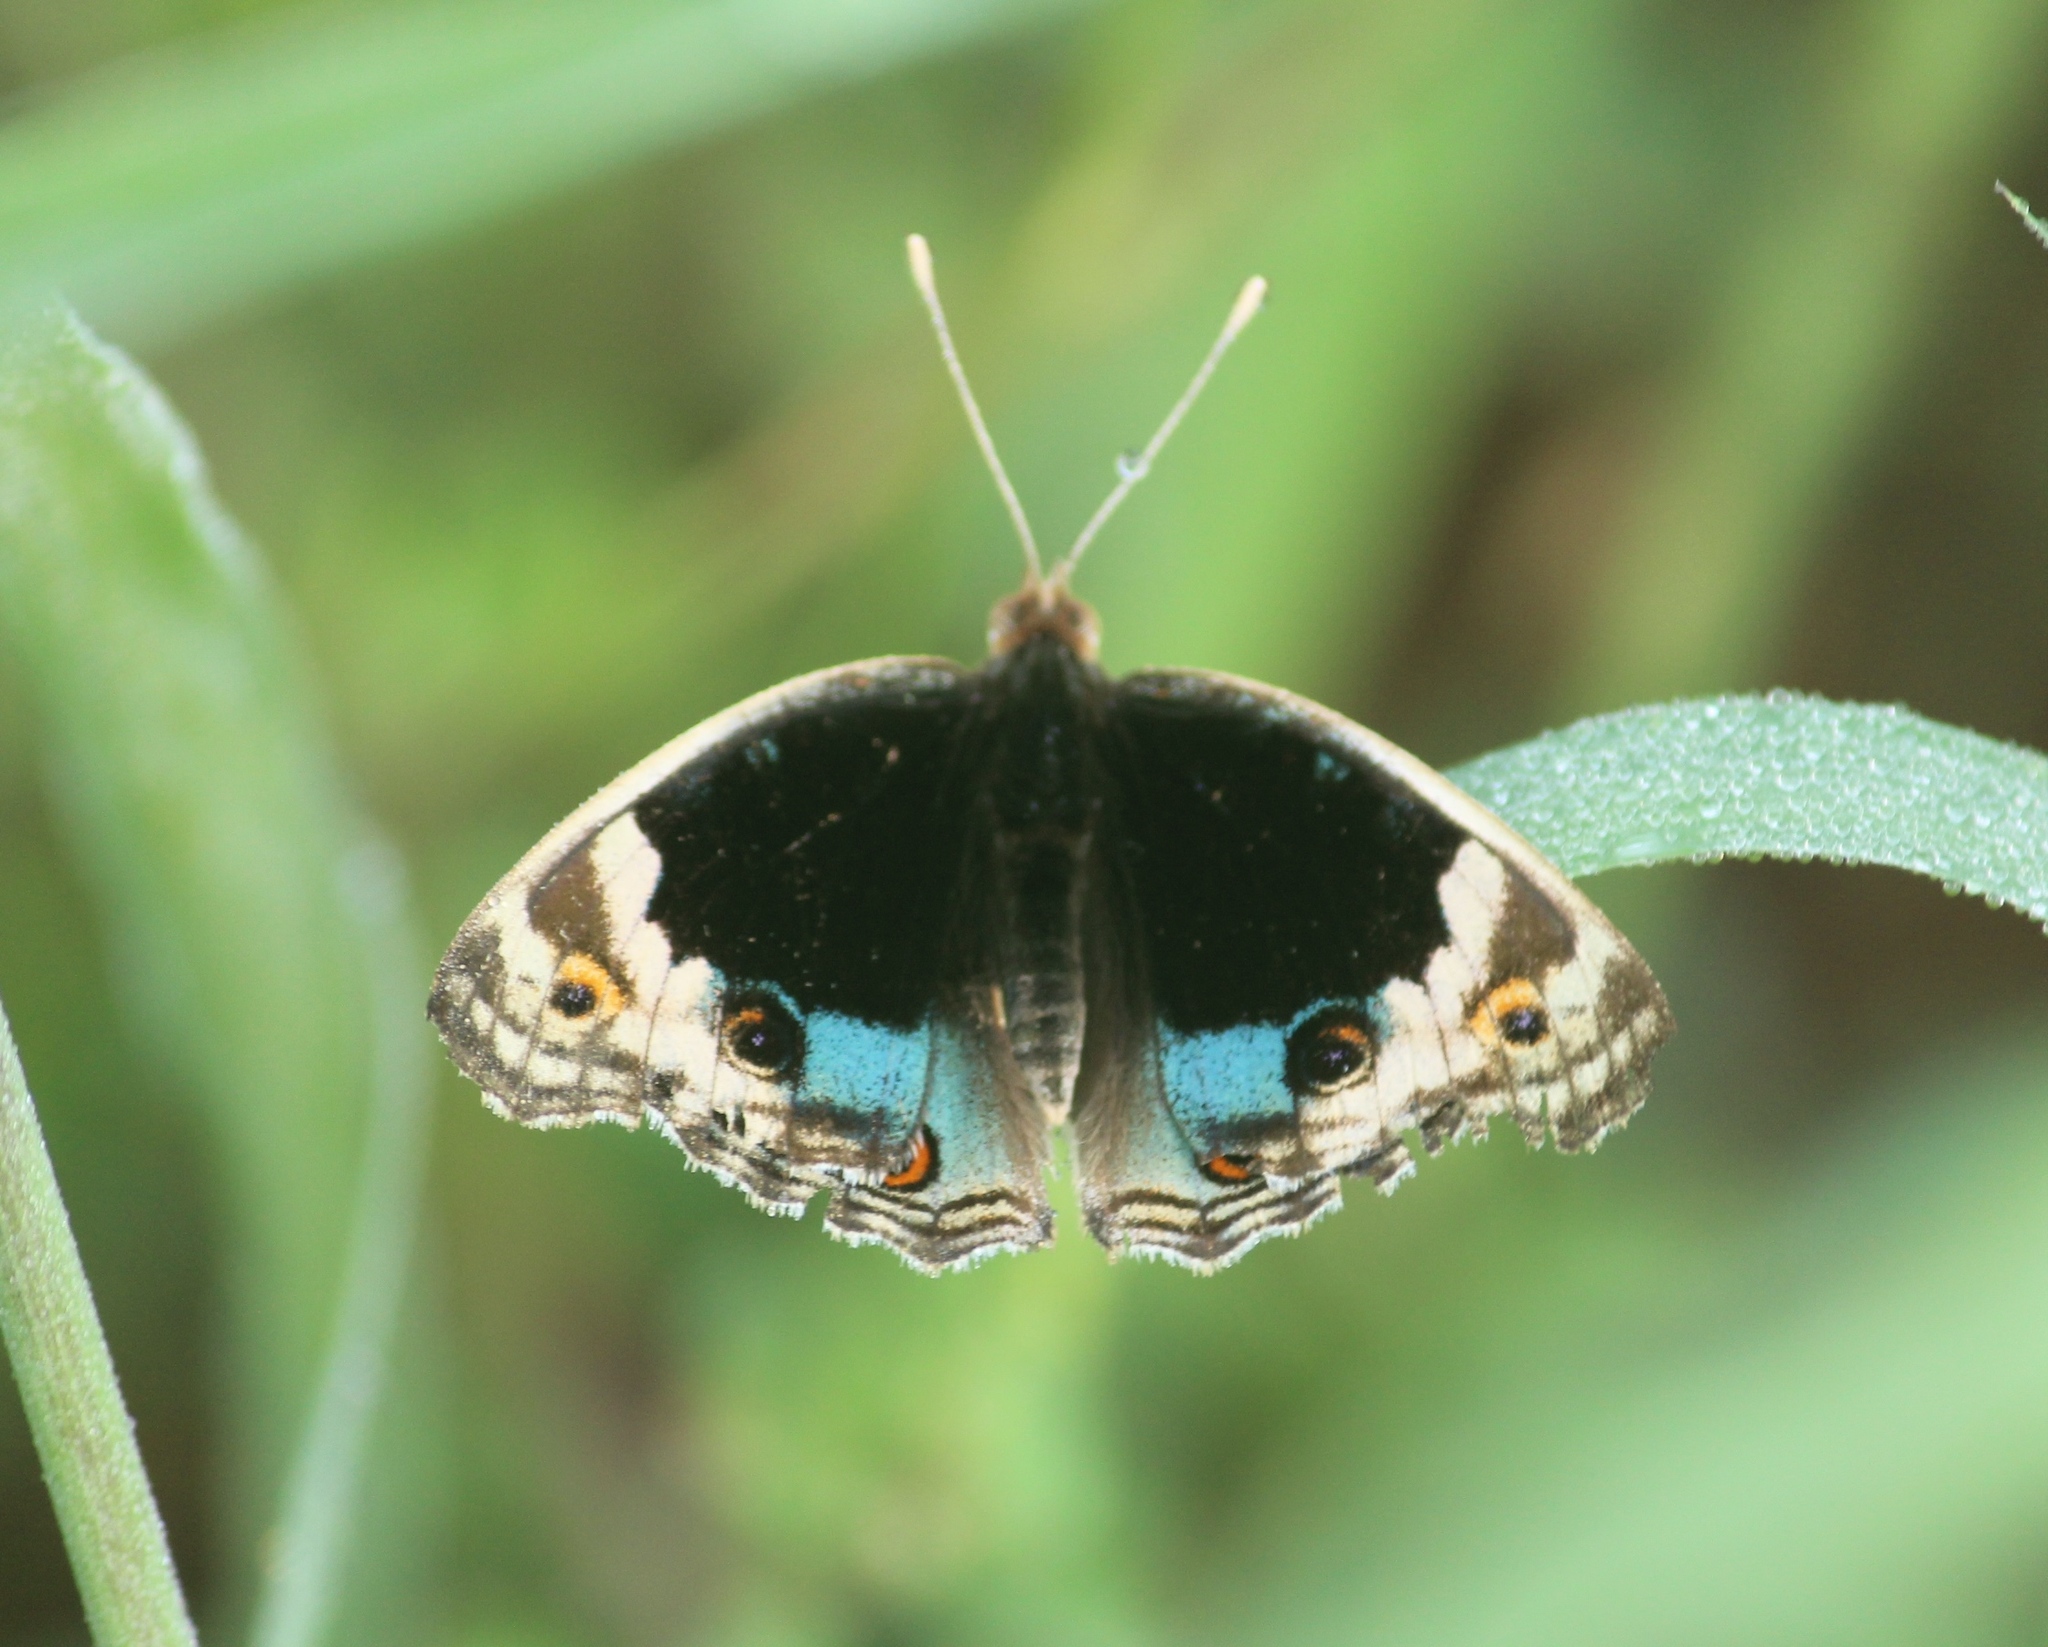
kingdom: Animalia
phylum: Arthropoda
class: Insecta
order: Lepidoptera
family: Nymphalidae
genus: Junonia
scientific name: Junonia orithya
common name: Blue pansy
